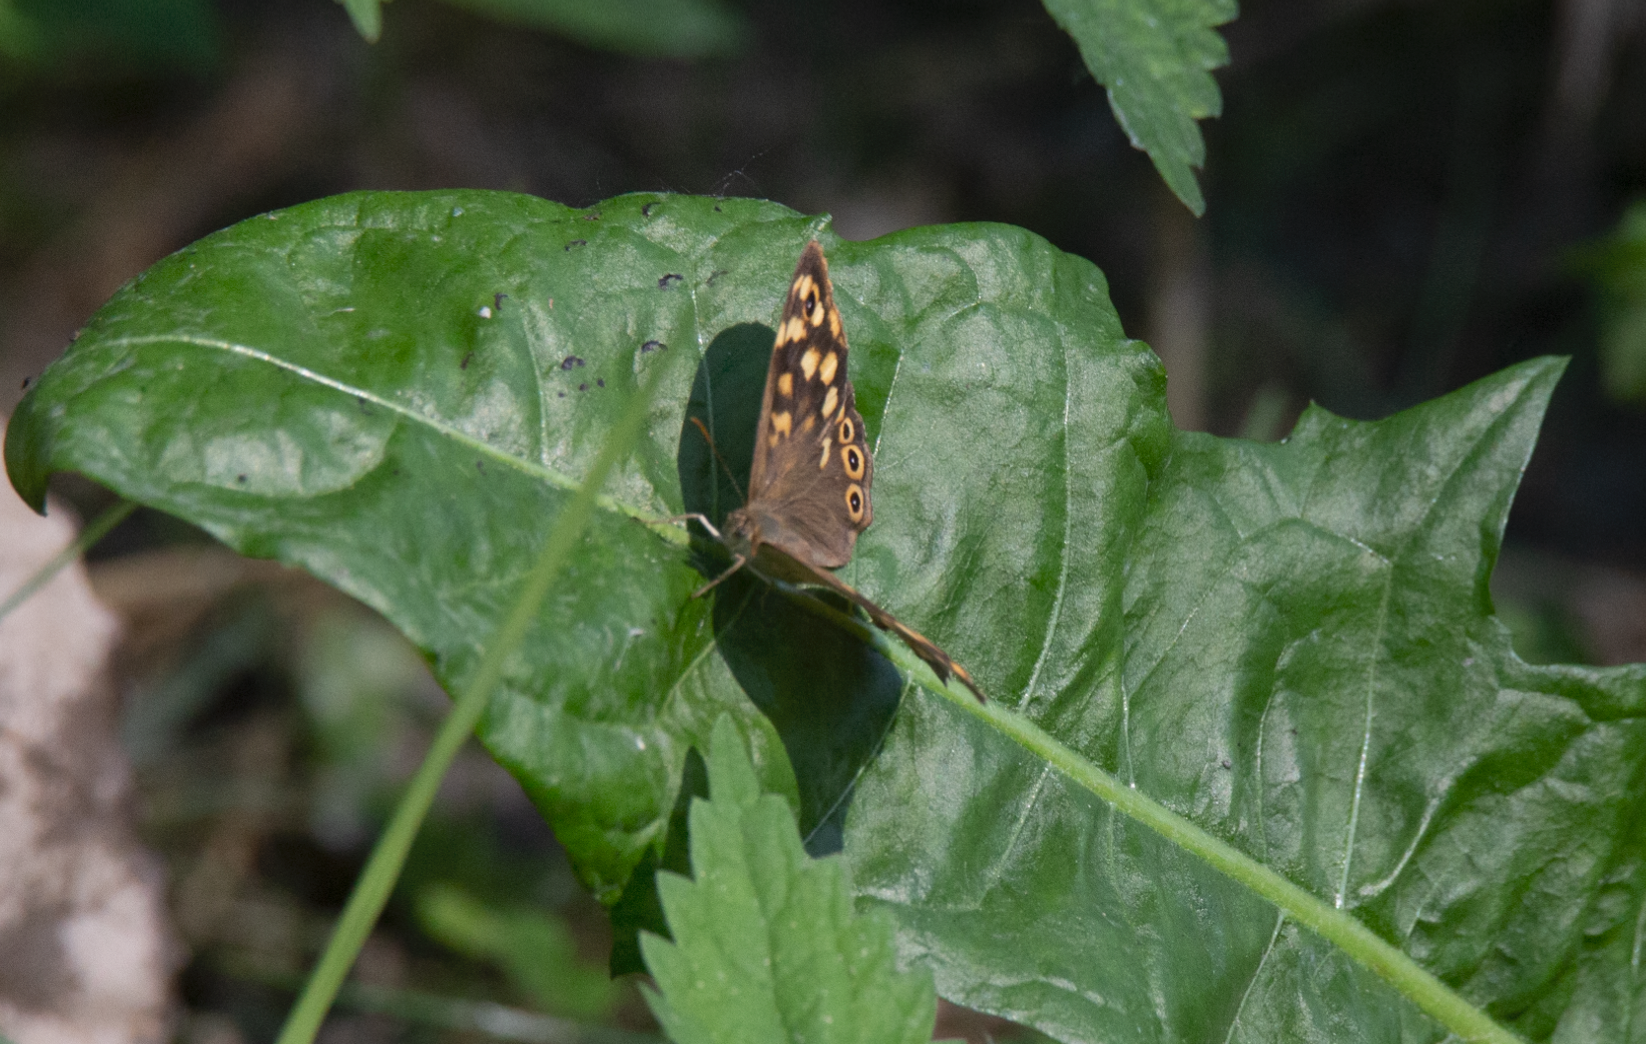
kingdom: Animalia
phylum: Arthropoda
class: Insecta
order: Lepidoptera
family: Nymphalidae
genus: Pararge
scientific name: Pararge aegeria
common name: Speckled wood
